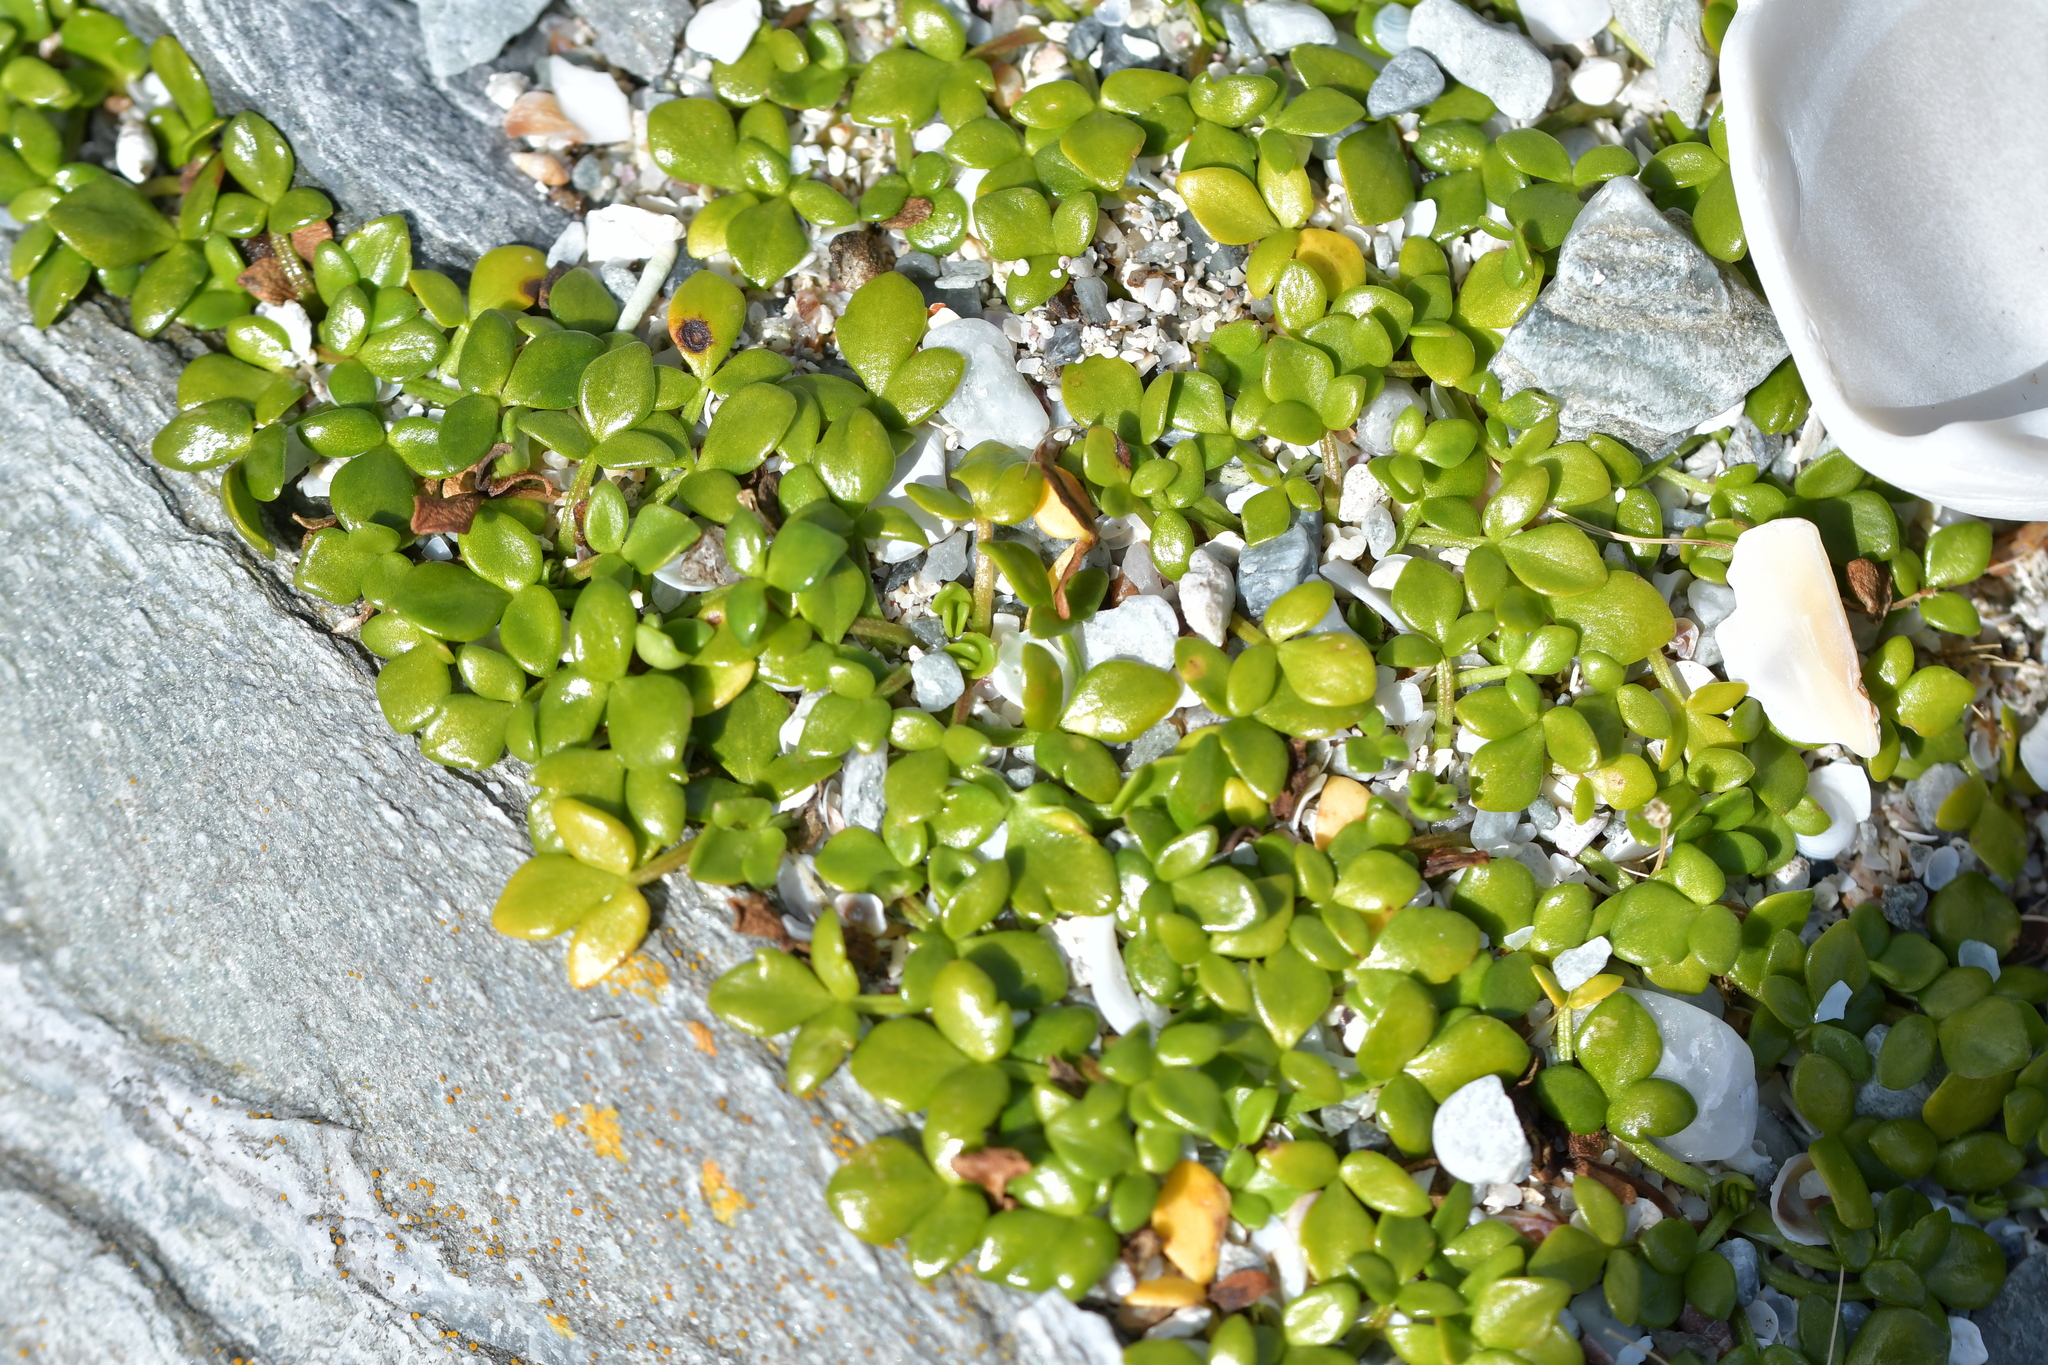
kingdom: Plantae
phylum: Tracheophyta
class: Magnoliopsida
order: Ranunculales
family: Ranunculaceae
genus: Ranunculus
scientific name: Ranunculus acaulis
